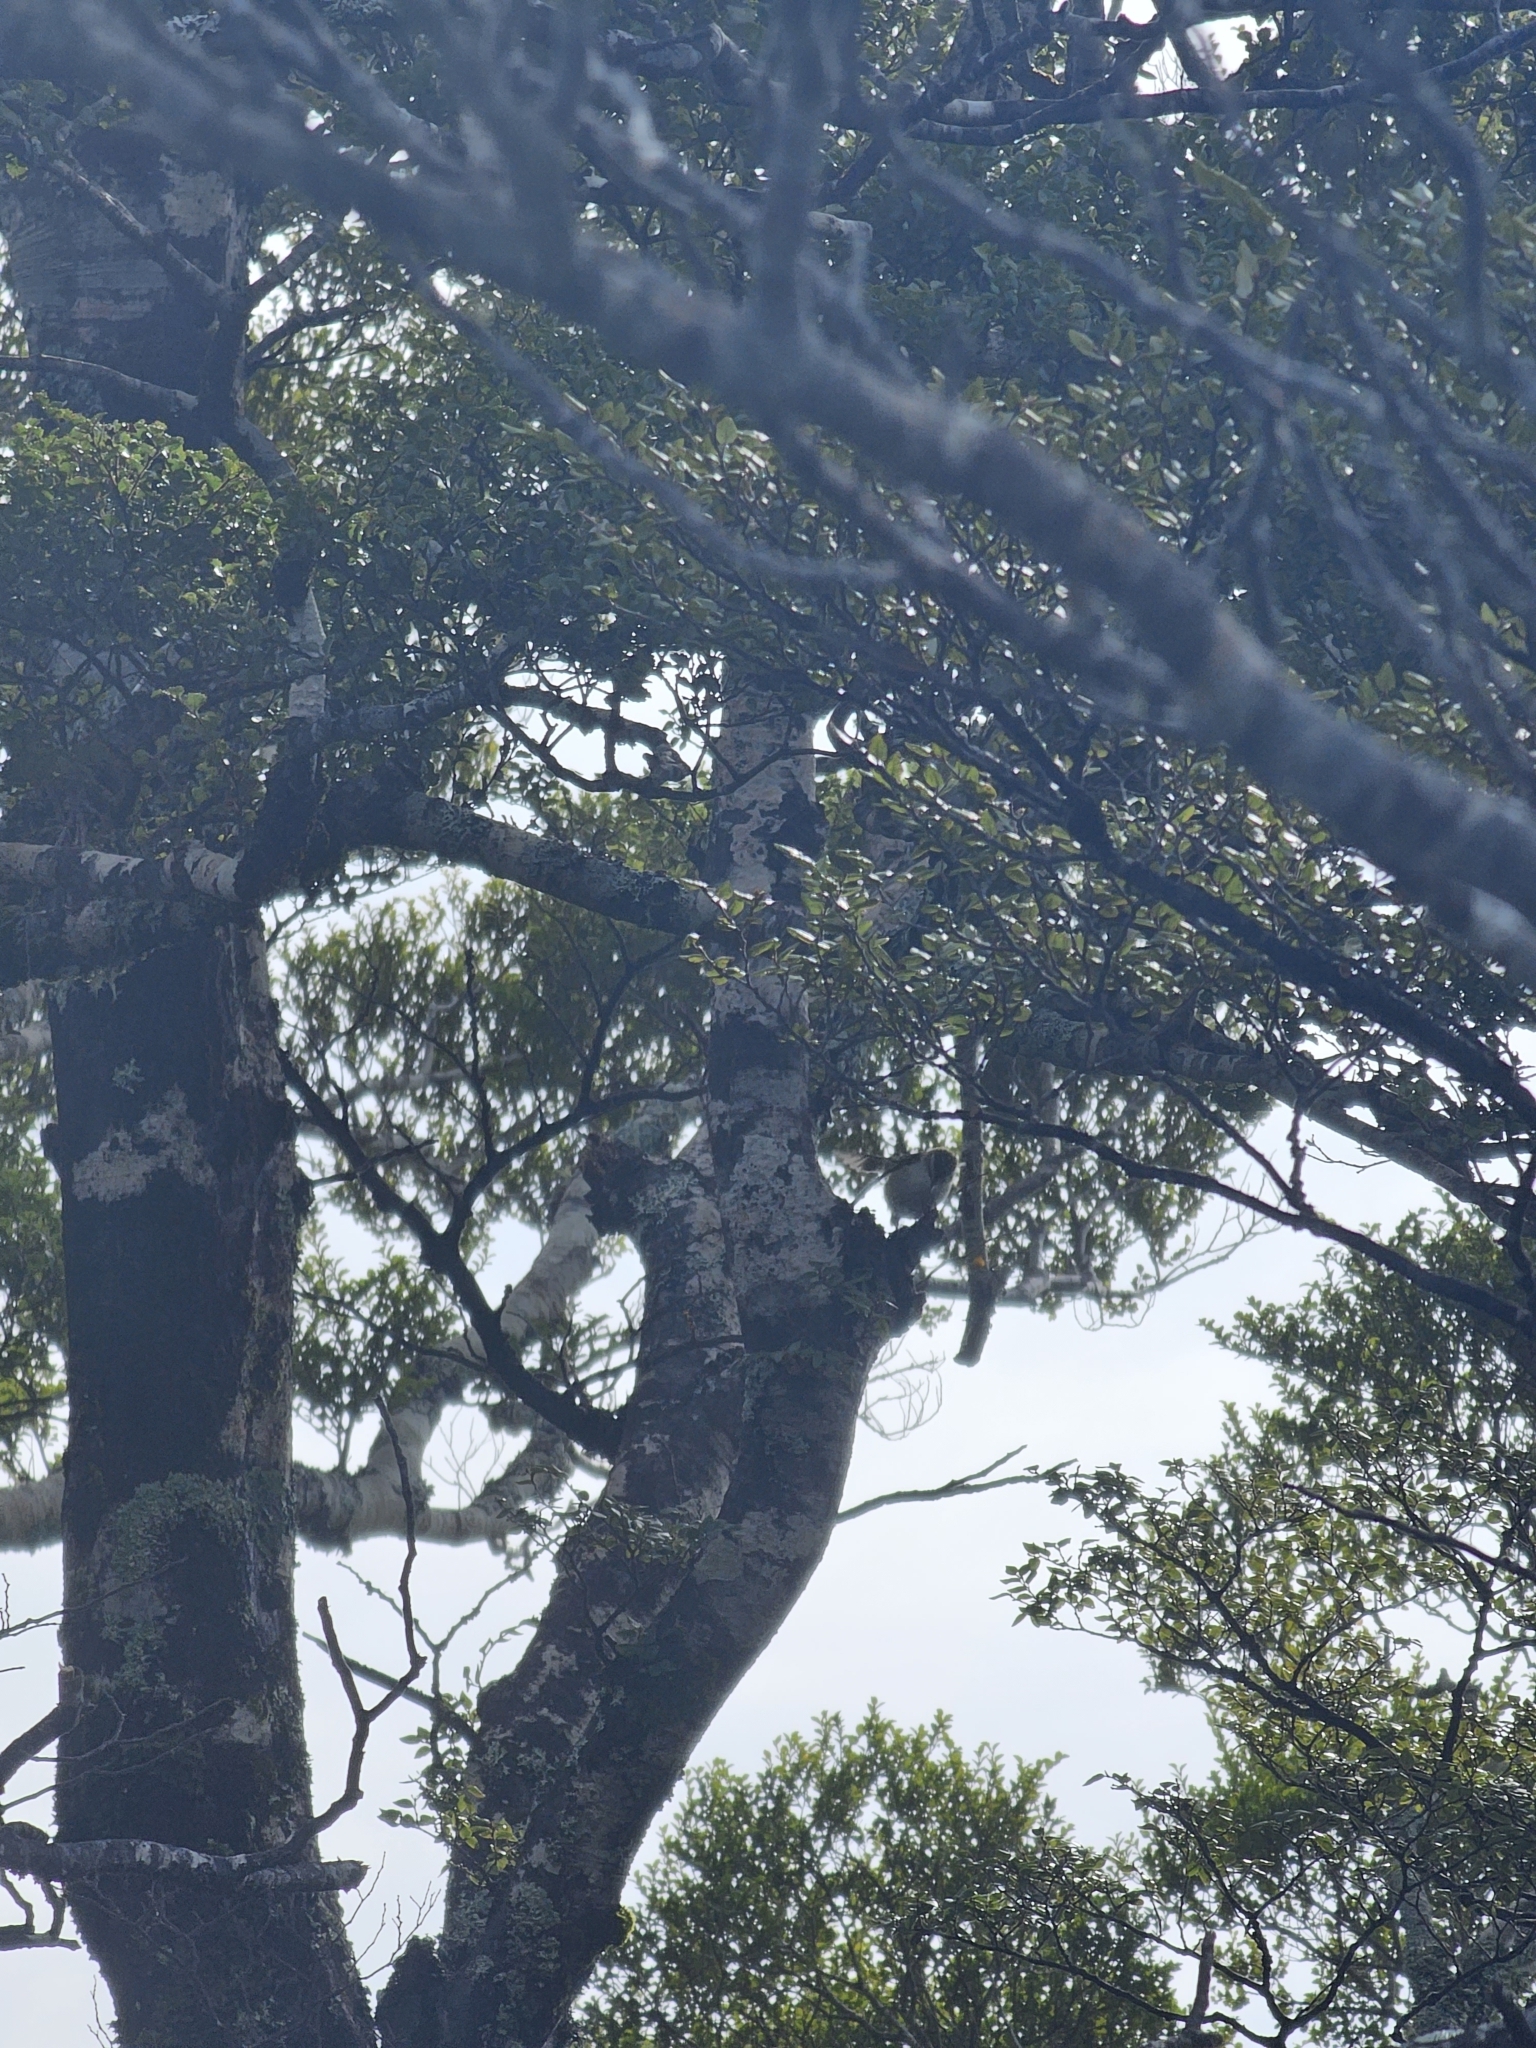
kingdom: Animalia
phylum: Chordata
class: Aves
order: Passeriformes
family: Acanthisittidae
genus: Acanthisitta
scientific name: Acanthisitta chloris
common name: Rifleman
